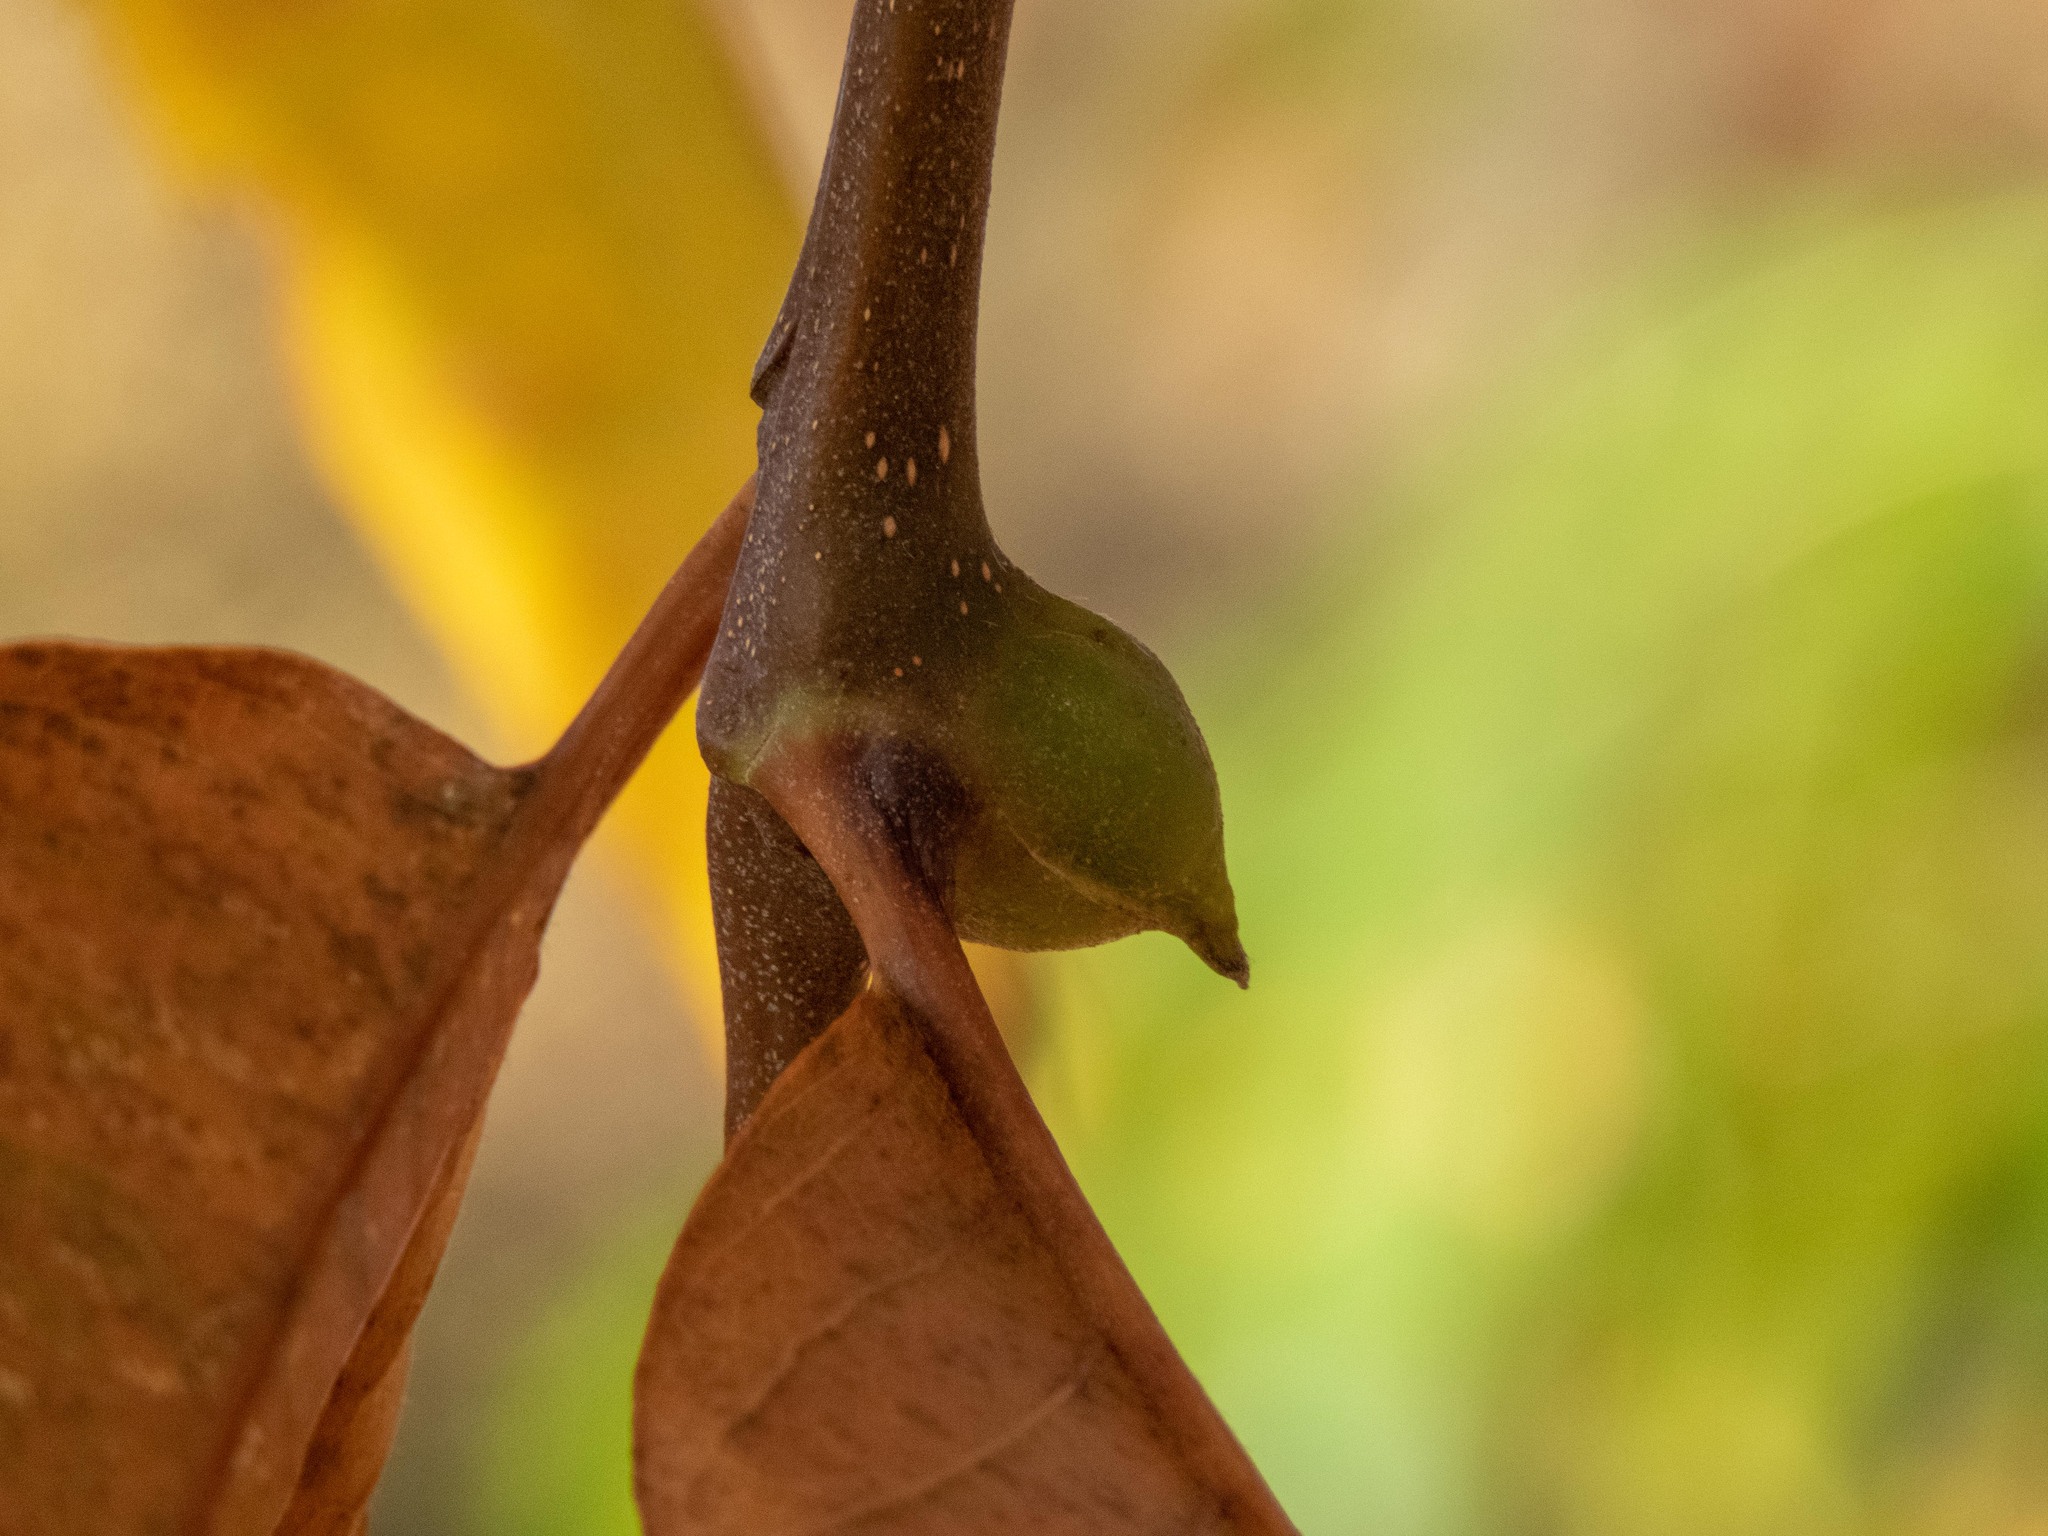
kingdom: Animalia
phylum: Arthropoda
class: Insecta
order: Hymenoptera
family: Cynipidae
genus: Dryocosmus
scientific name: Dryocosmus kuriphilus
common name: Asian chestnut gall wasp
